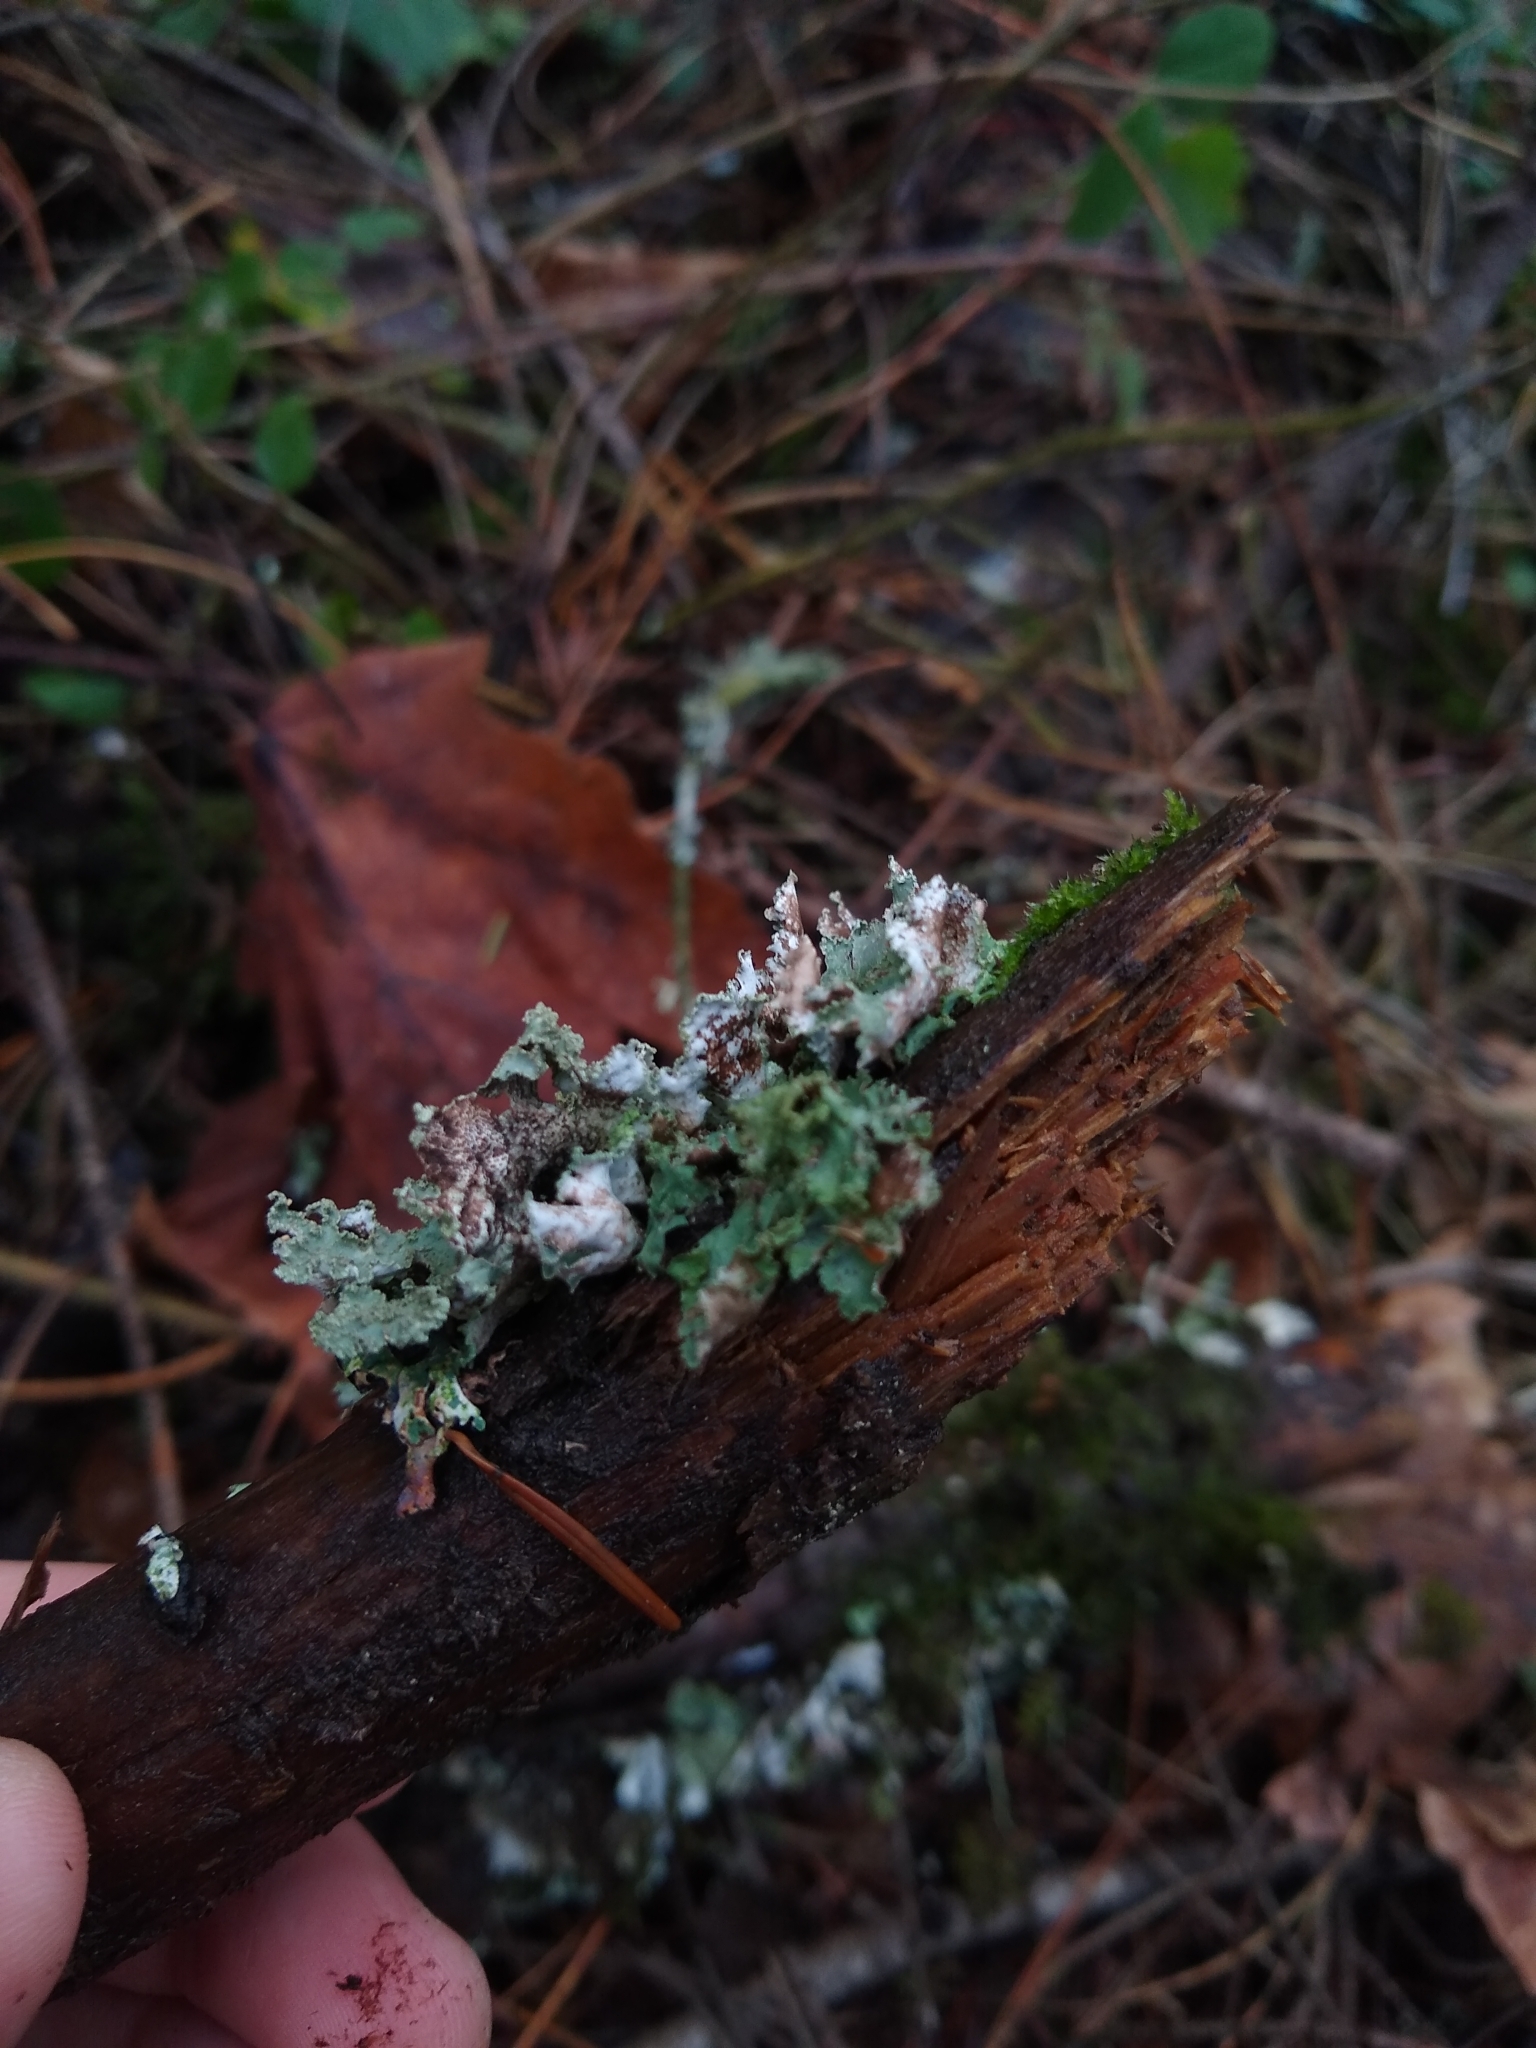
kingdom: Fungi
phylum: Ascomycota
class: Lecanoromycetes
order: Lecanorales
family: Parmeliaceae
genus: Platismatia
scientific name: Platismatia glauca
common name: Varied rag lichen
